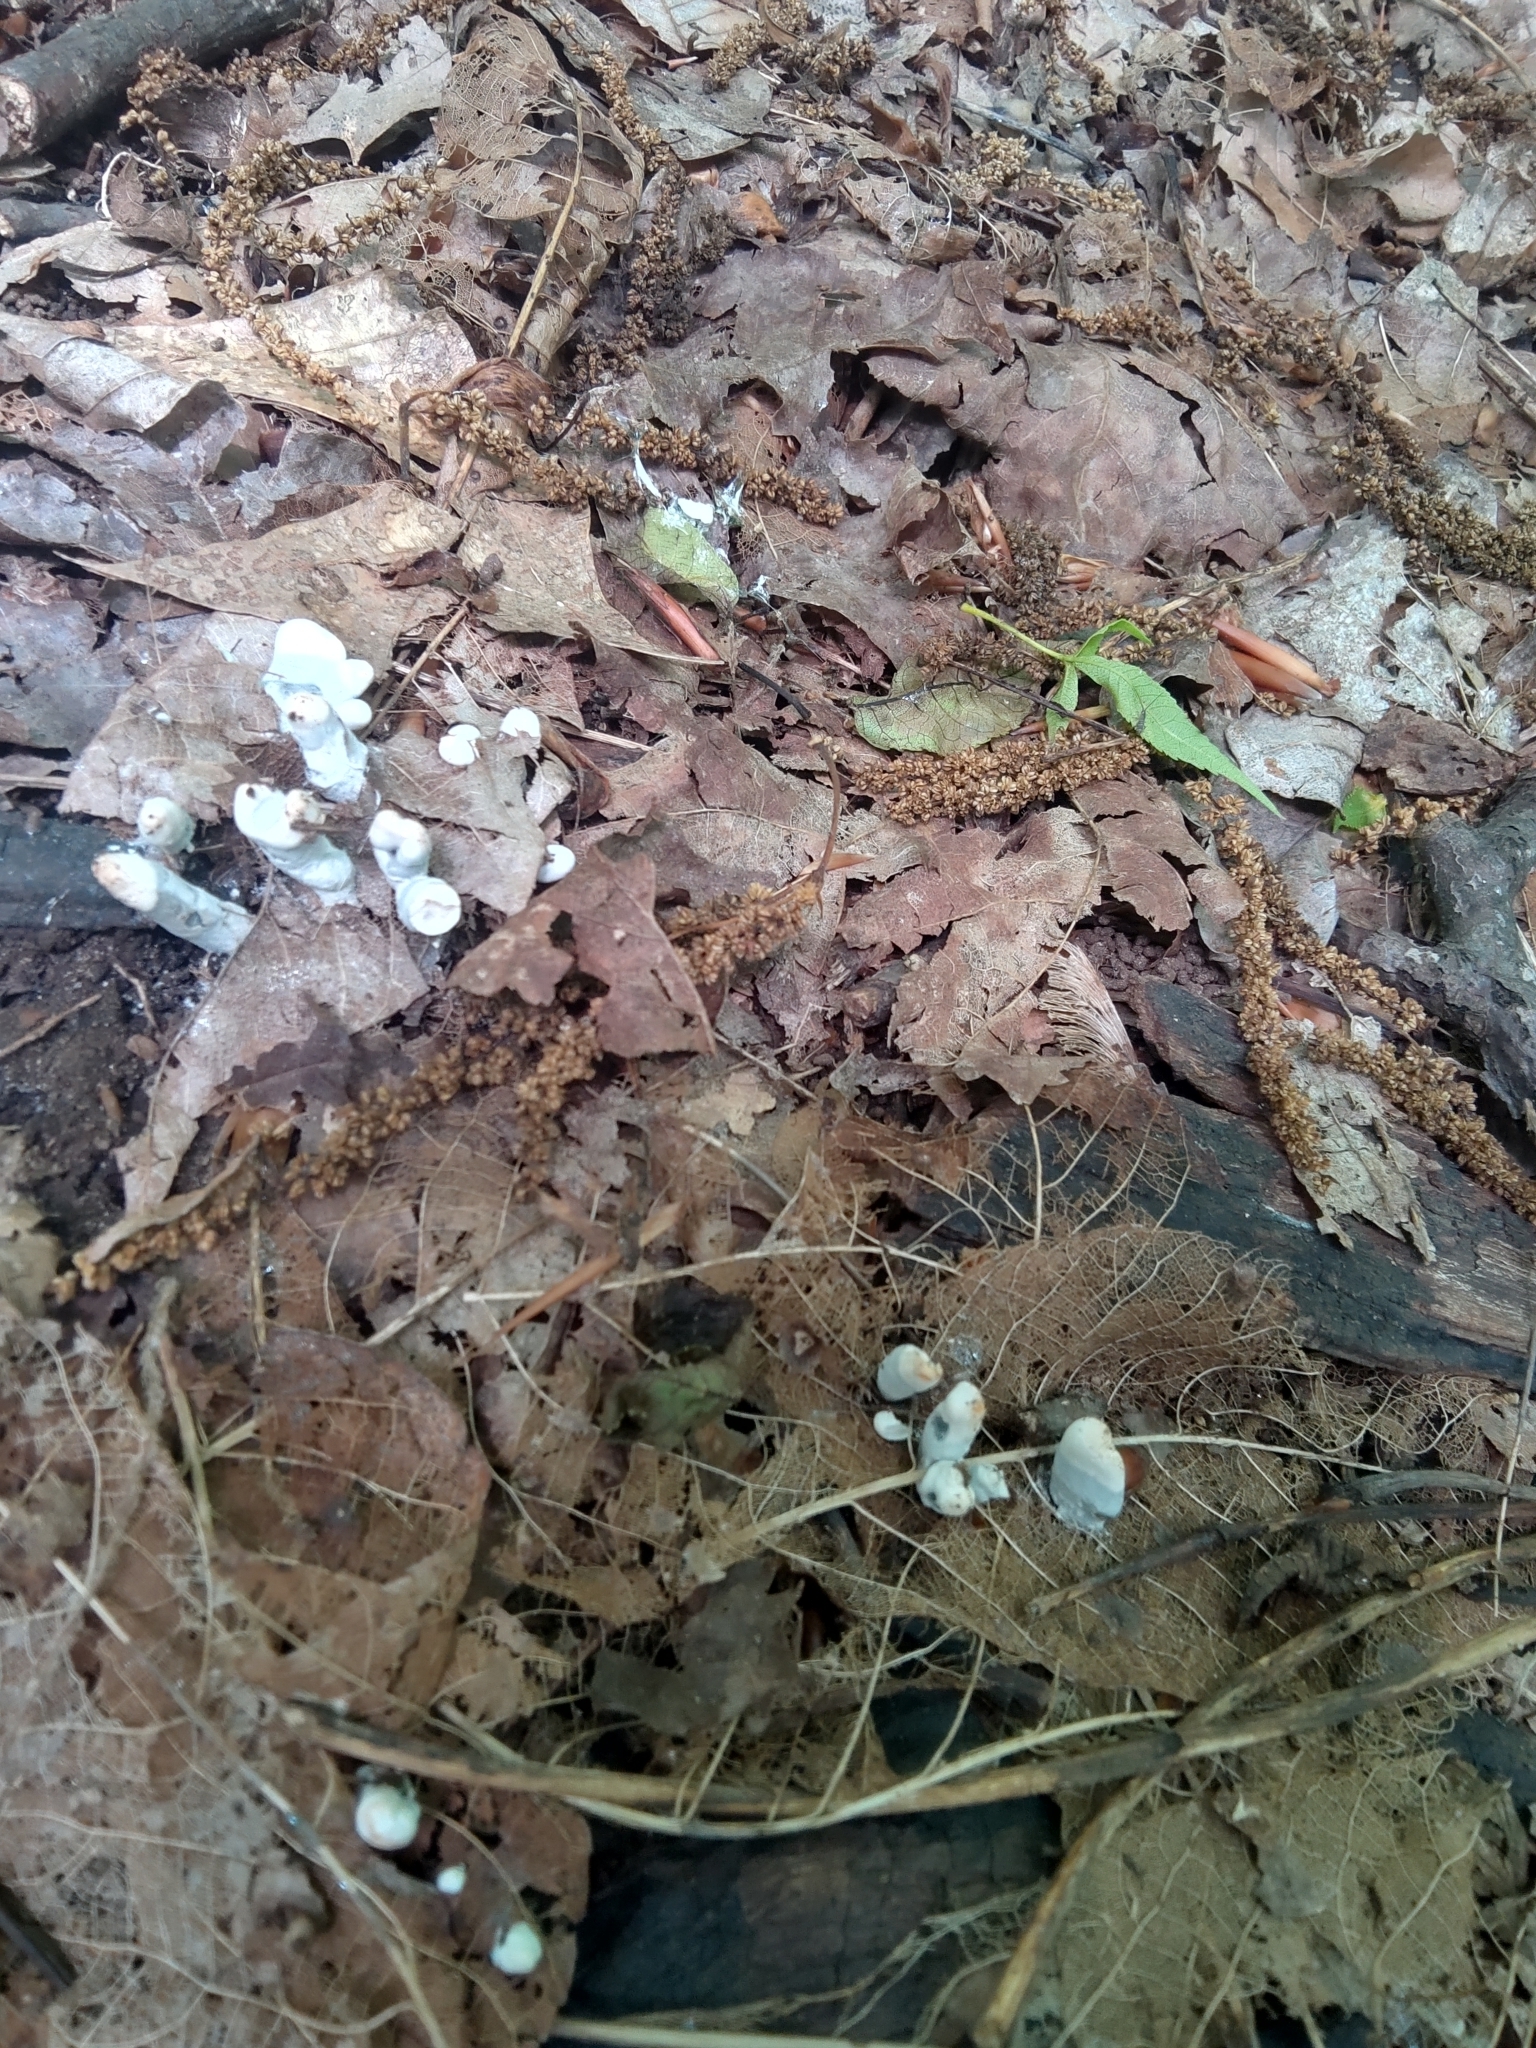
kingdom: Fungi
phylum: Ascomycota
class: Sordariomycetes
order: Xylariales
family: Xylariaceae
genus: Xylaria
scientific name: Xylaria
